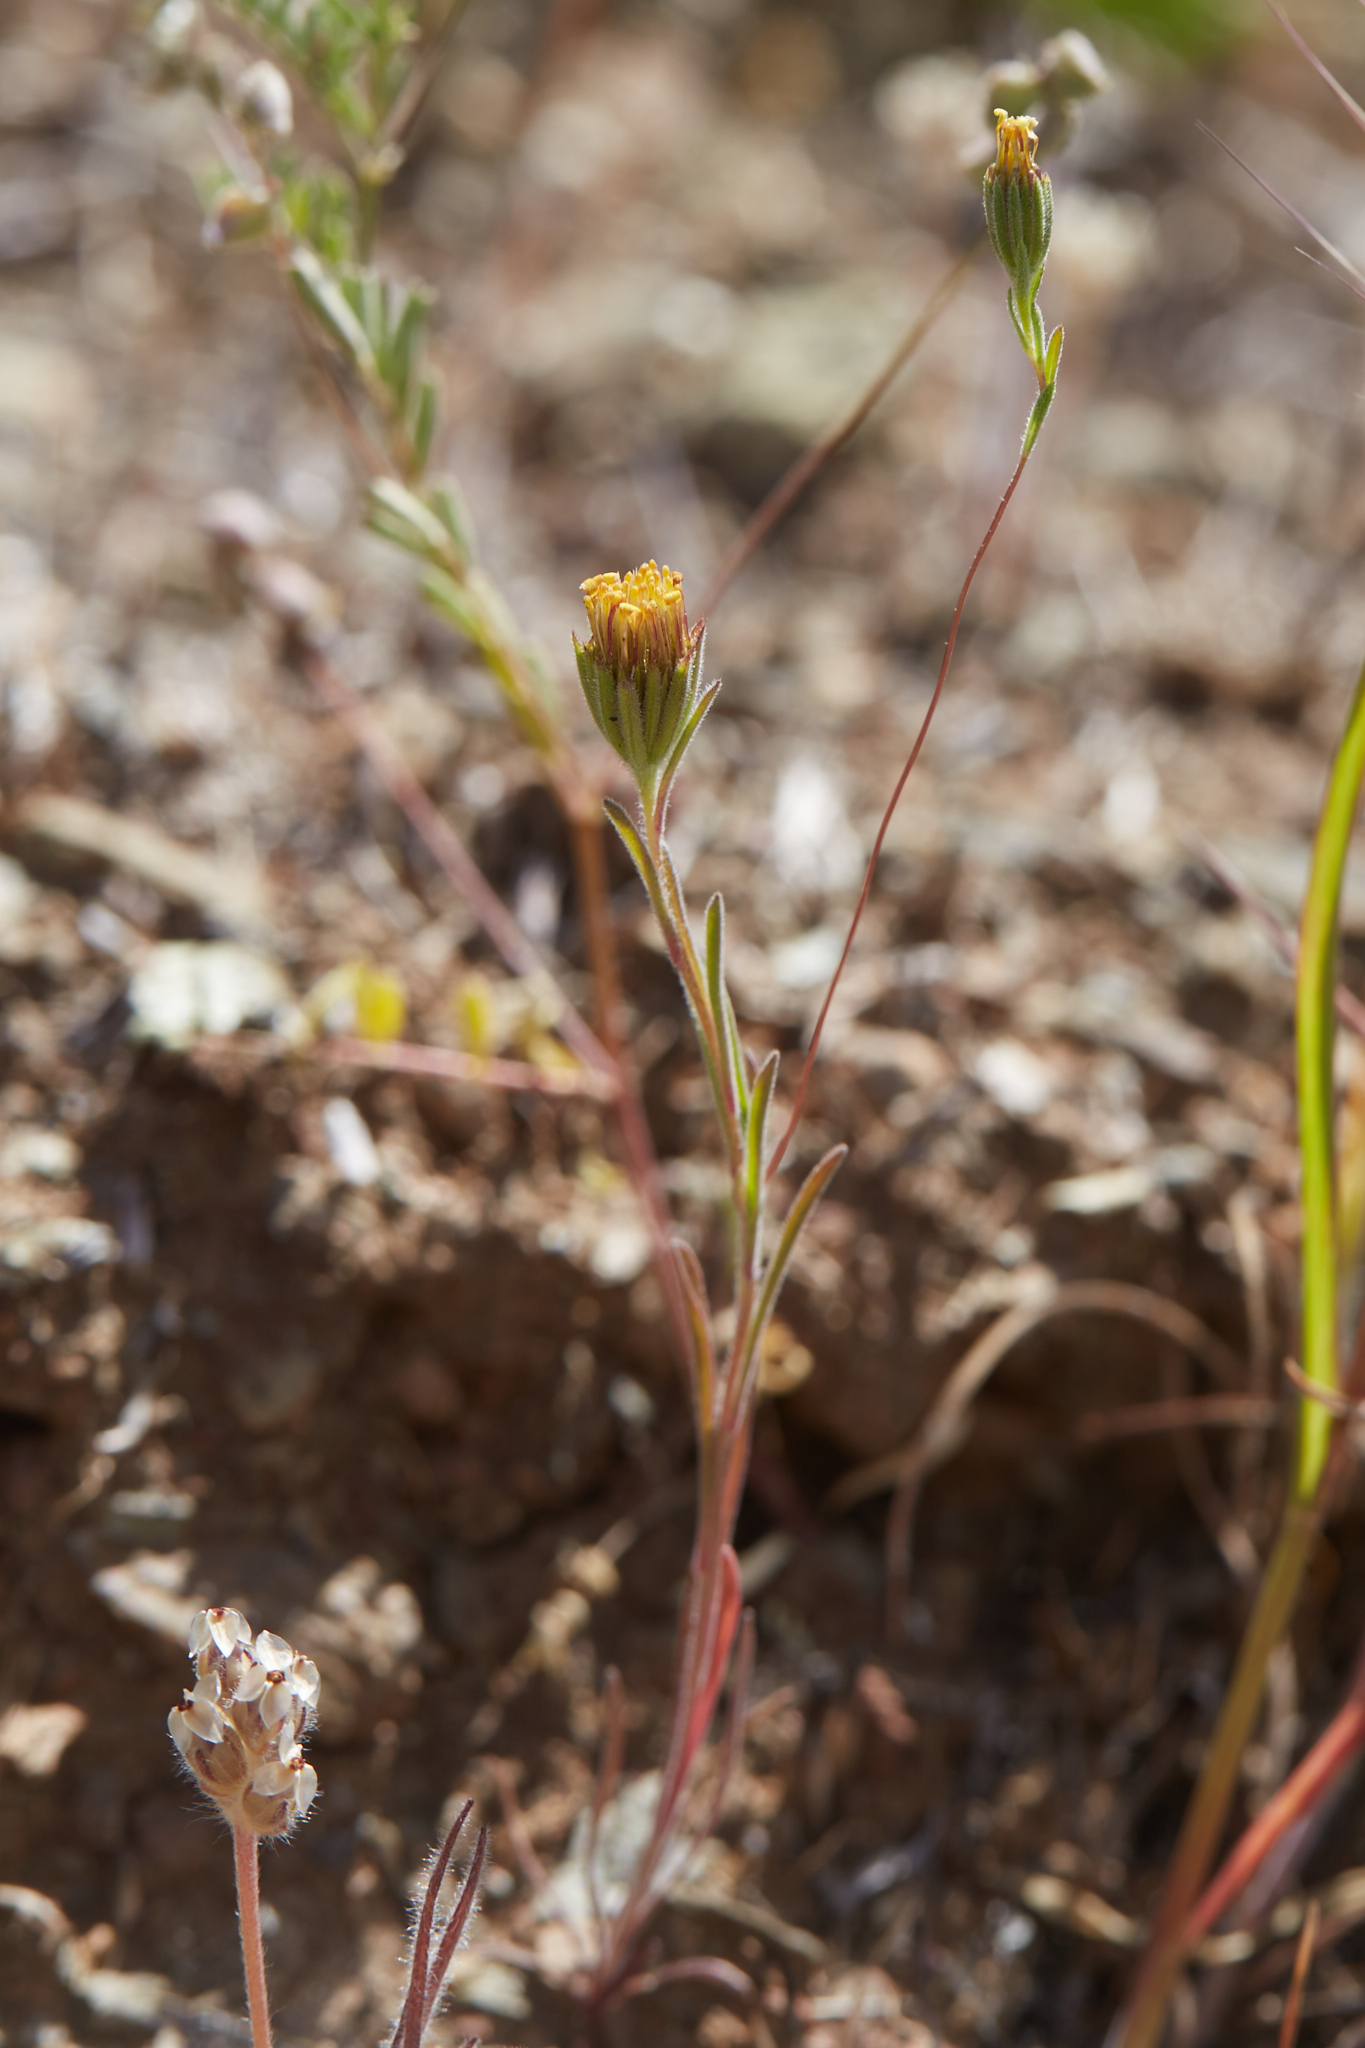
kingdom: Plantae
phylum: Tracheophyta
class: Magnoliopsida
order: Asterales
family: Asteraceae
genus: Rigiopappus
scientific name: Rigiopappus leptocladus
